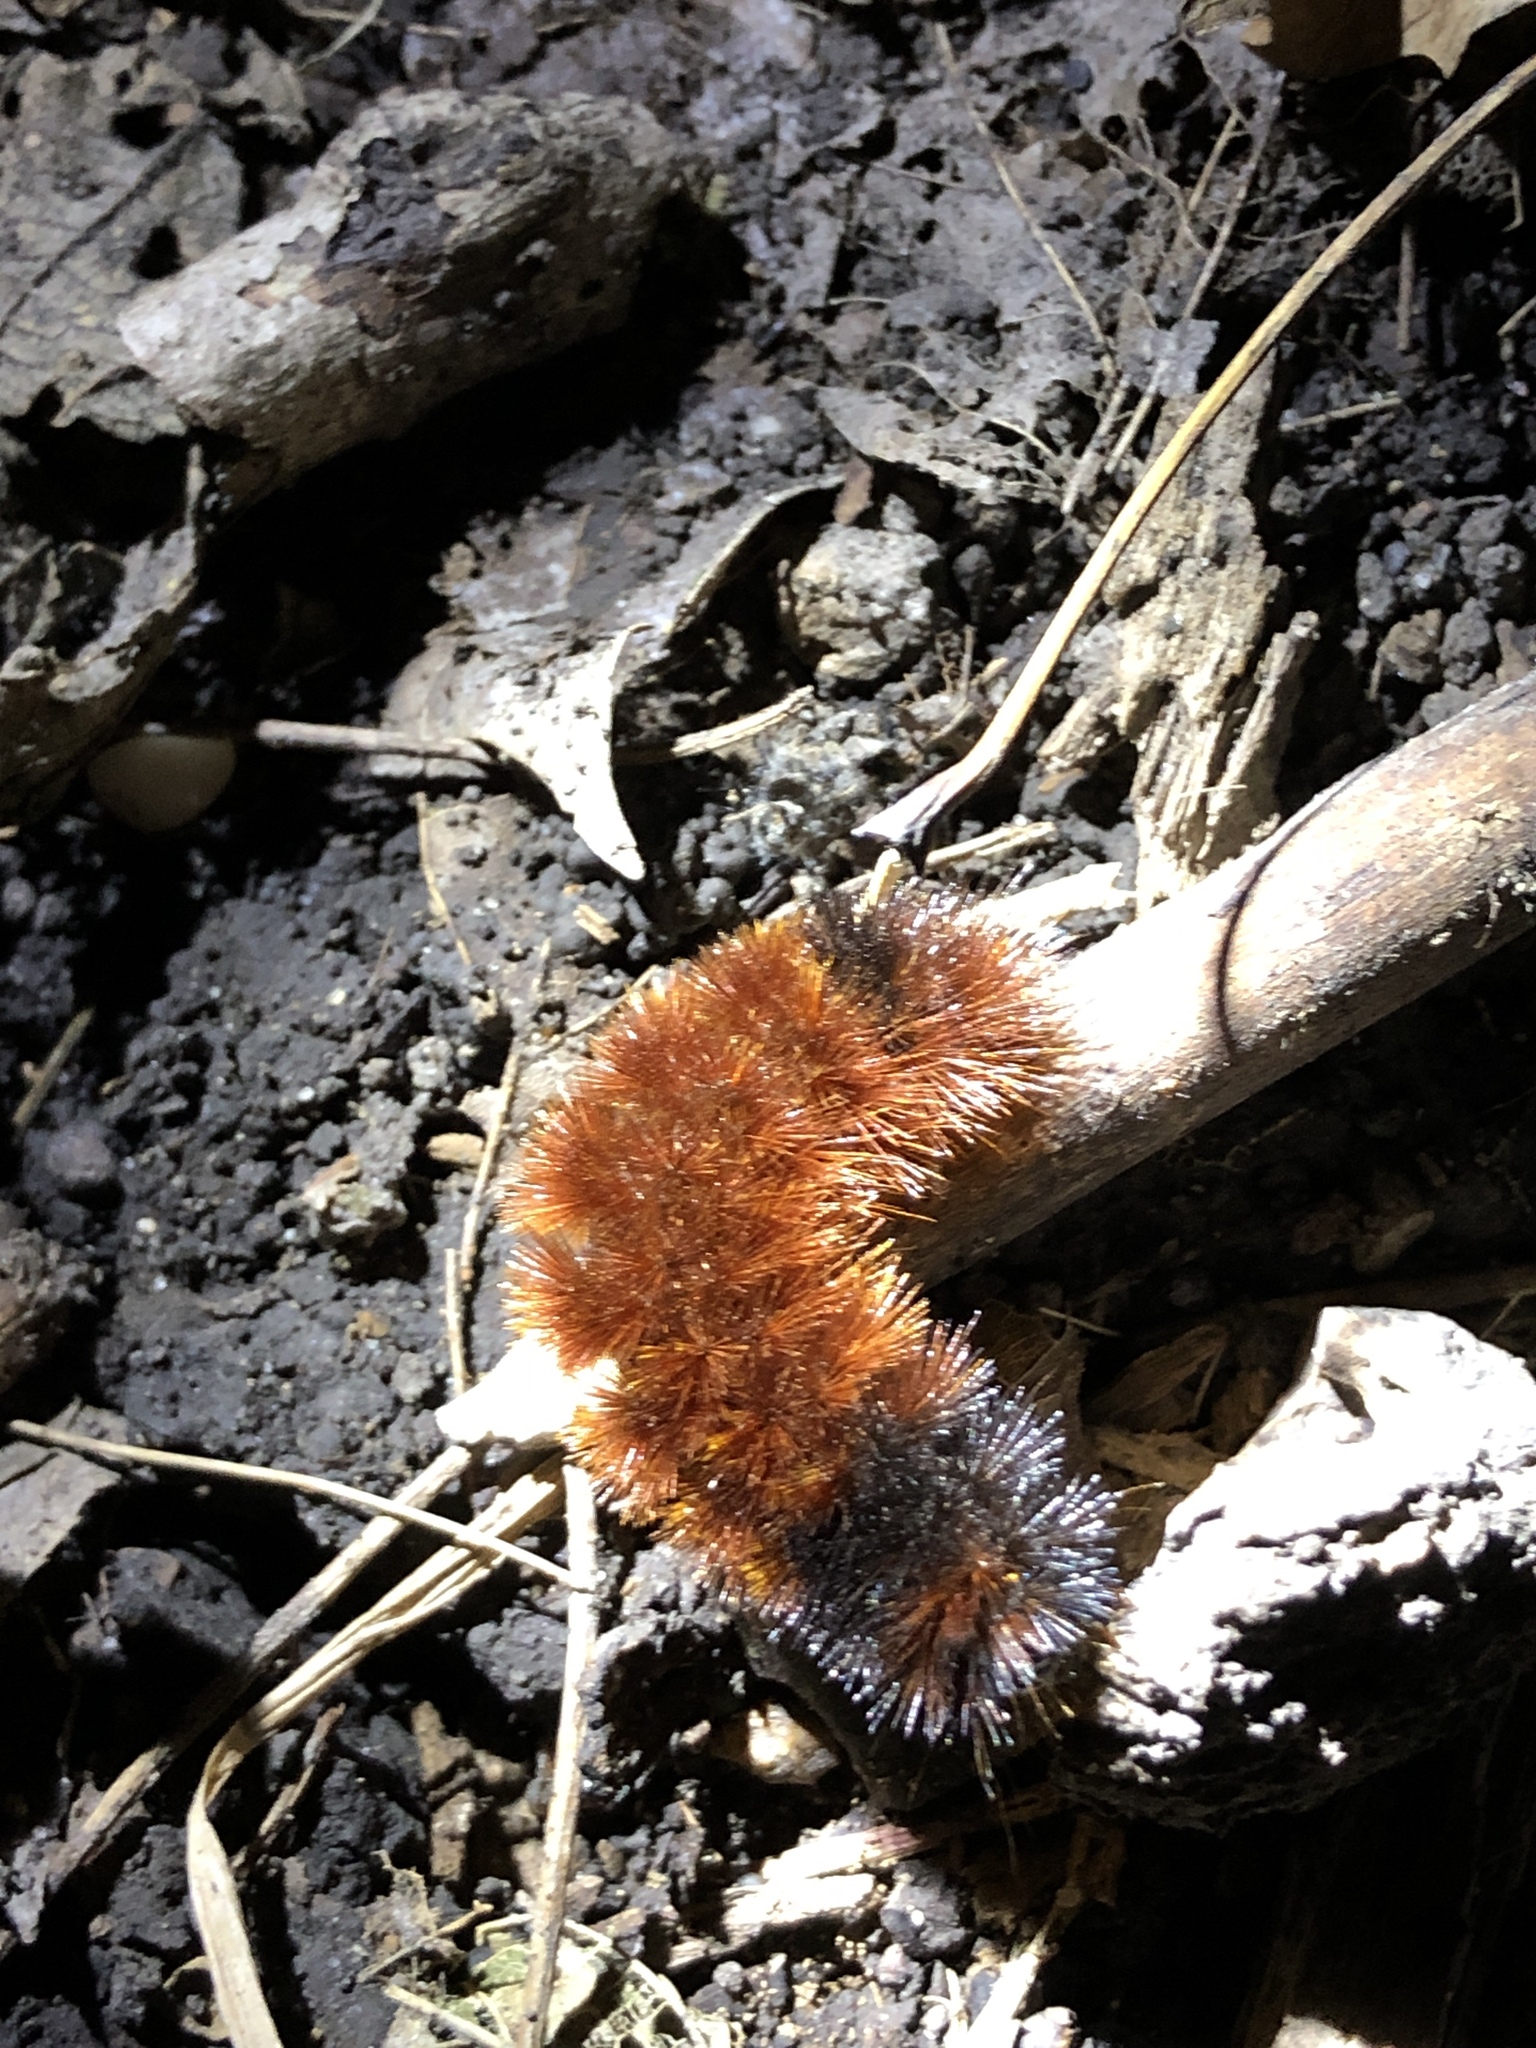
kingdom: Animalia
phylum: Arthropoda
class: Insecta
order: Lepidoptera
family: Erebidae
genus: Pyrrharctia
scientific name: Pyrrharctia isabella
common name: Isabella tiger moth
